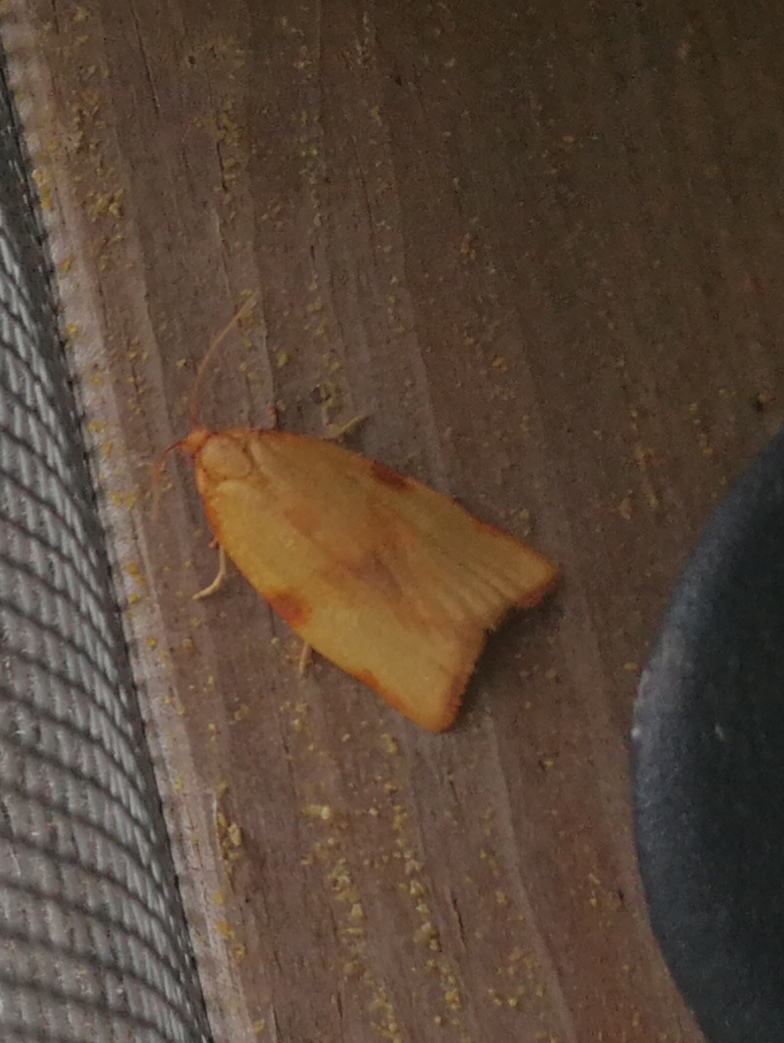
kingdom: Animalia
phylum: Arthropoda
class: Insecta
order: Lepidoptera
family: Tortricidae
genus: Clepsis
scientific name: Clepsis siciliana
